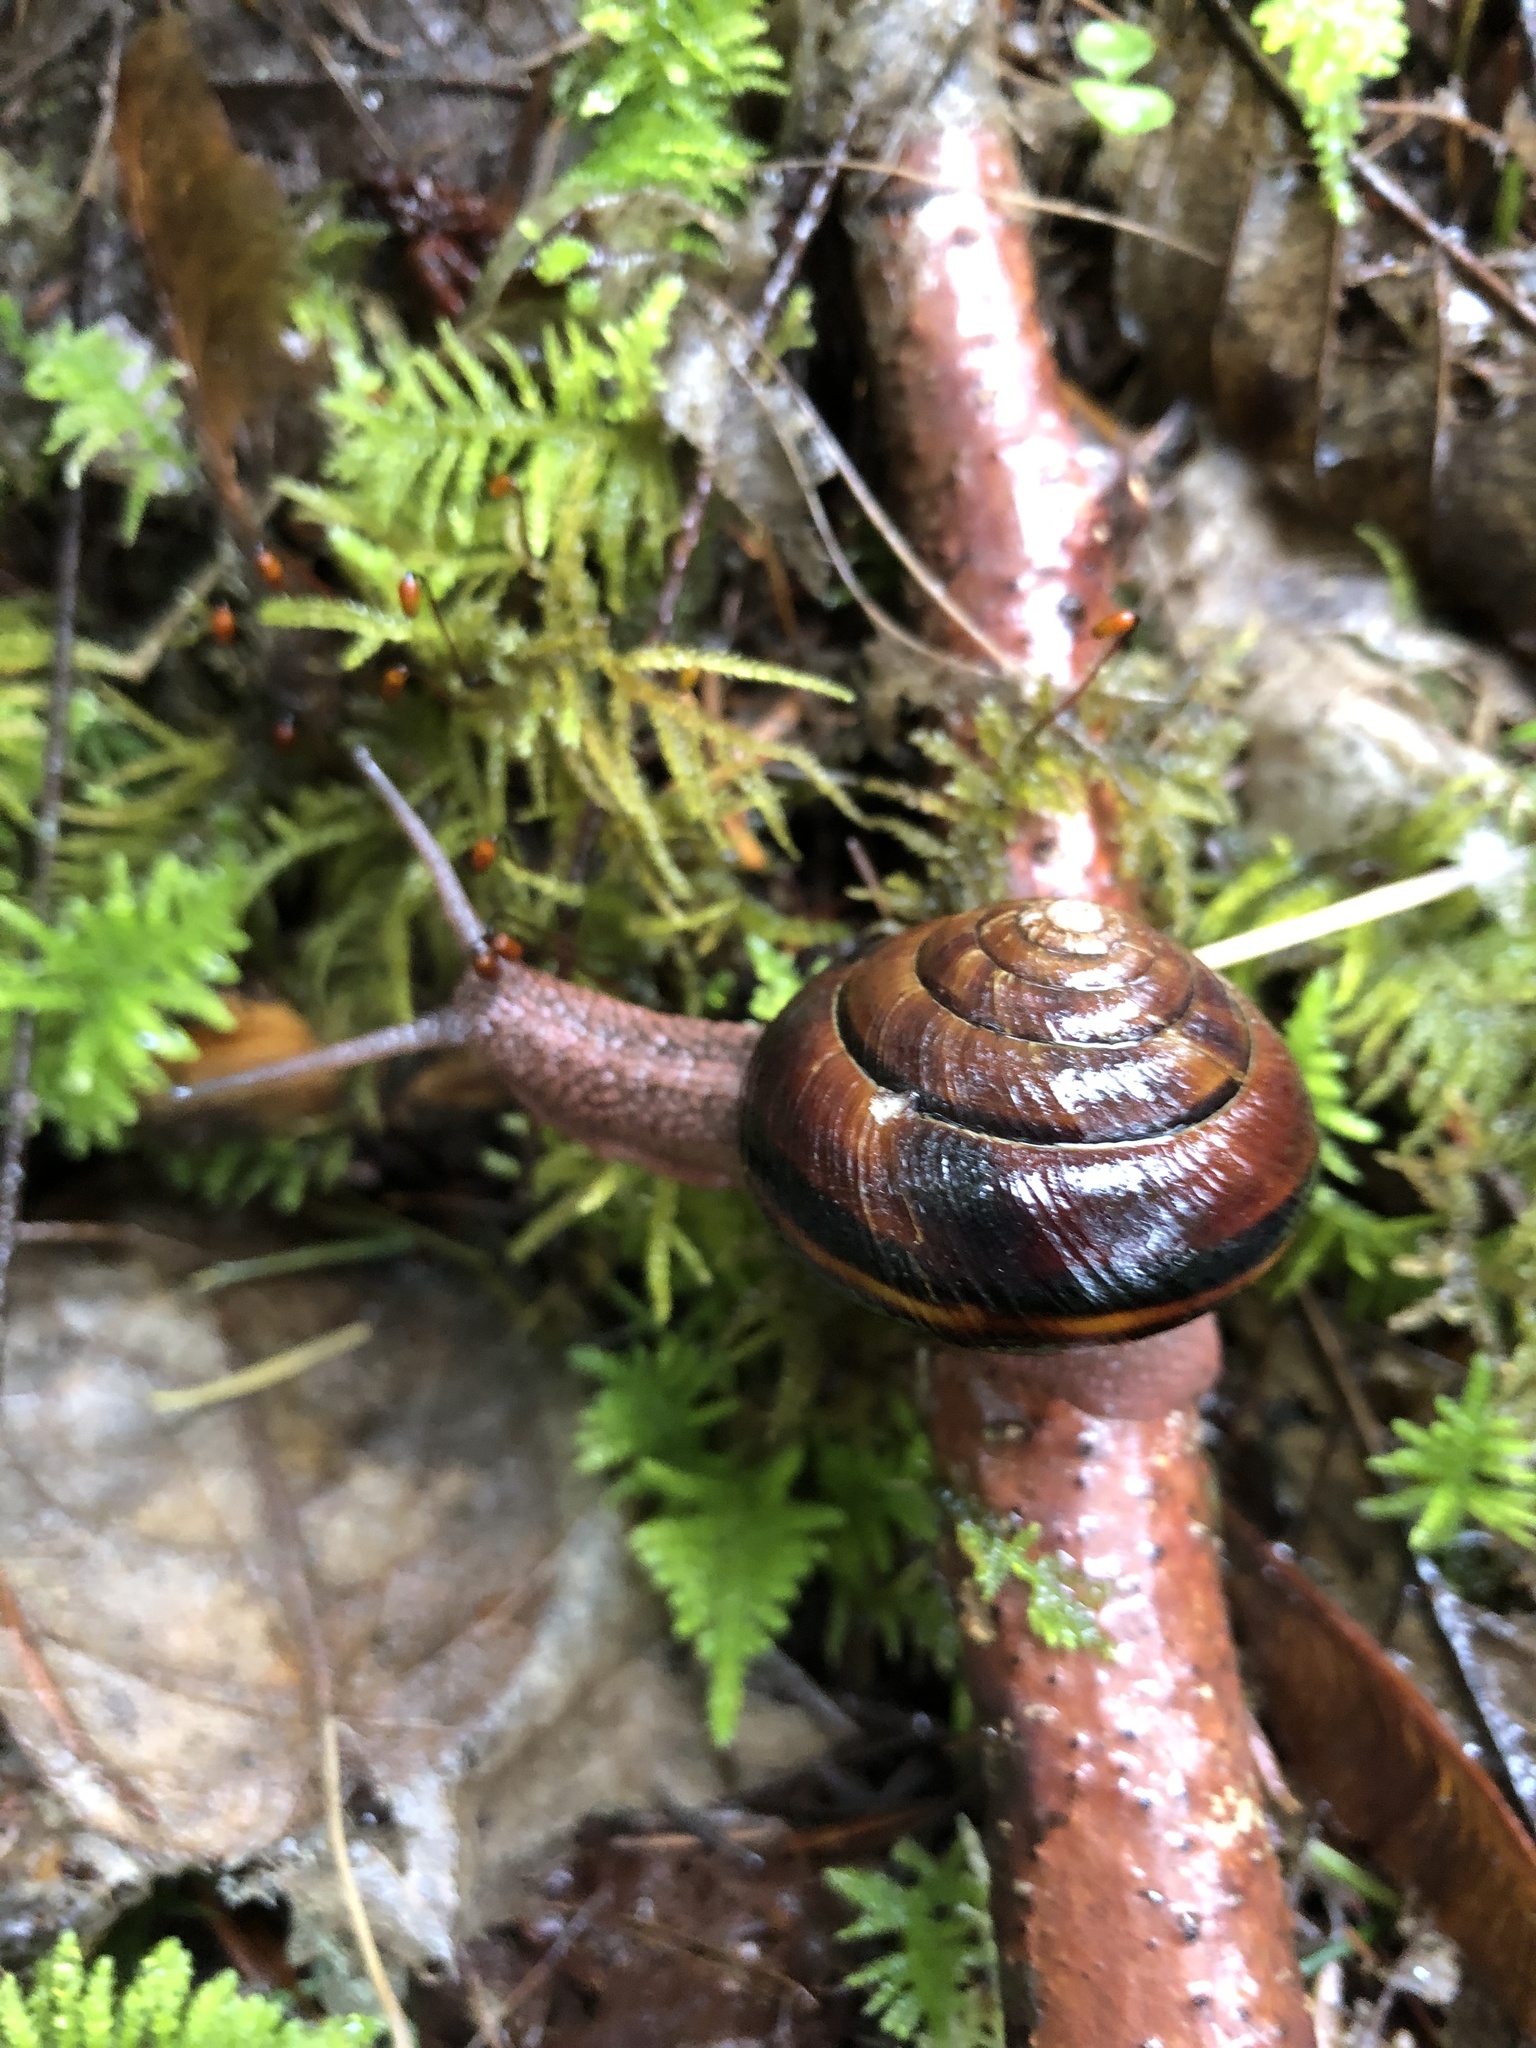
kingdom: Animalia
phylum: Mollusca
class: Gastropoda
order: Stylommatophora
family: Xanthonychidae
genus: Monadenia
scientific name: Monadenia fidelis
